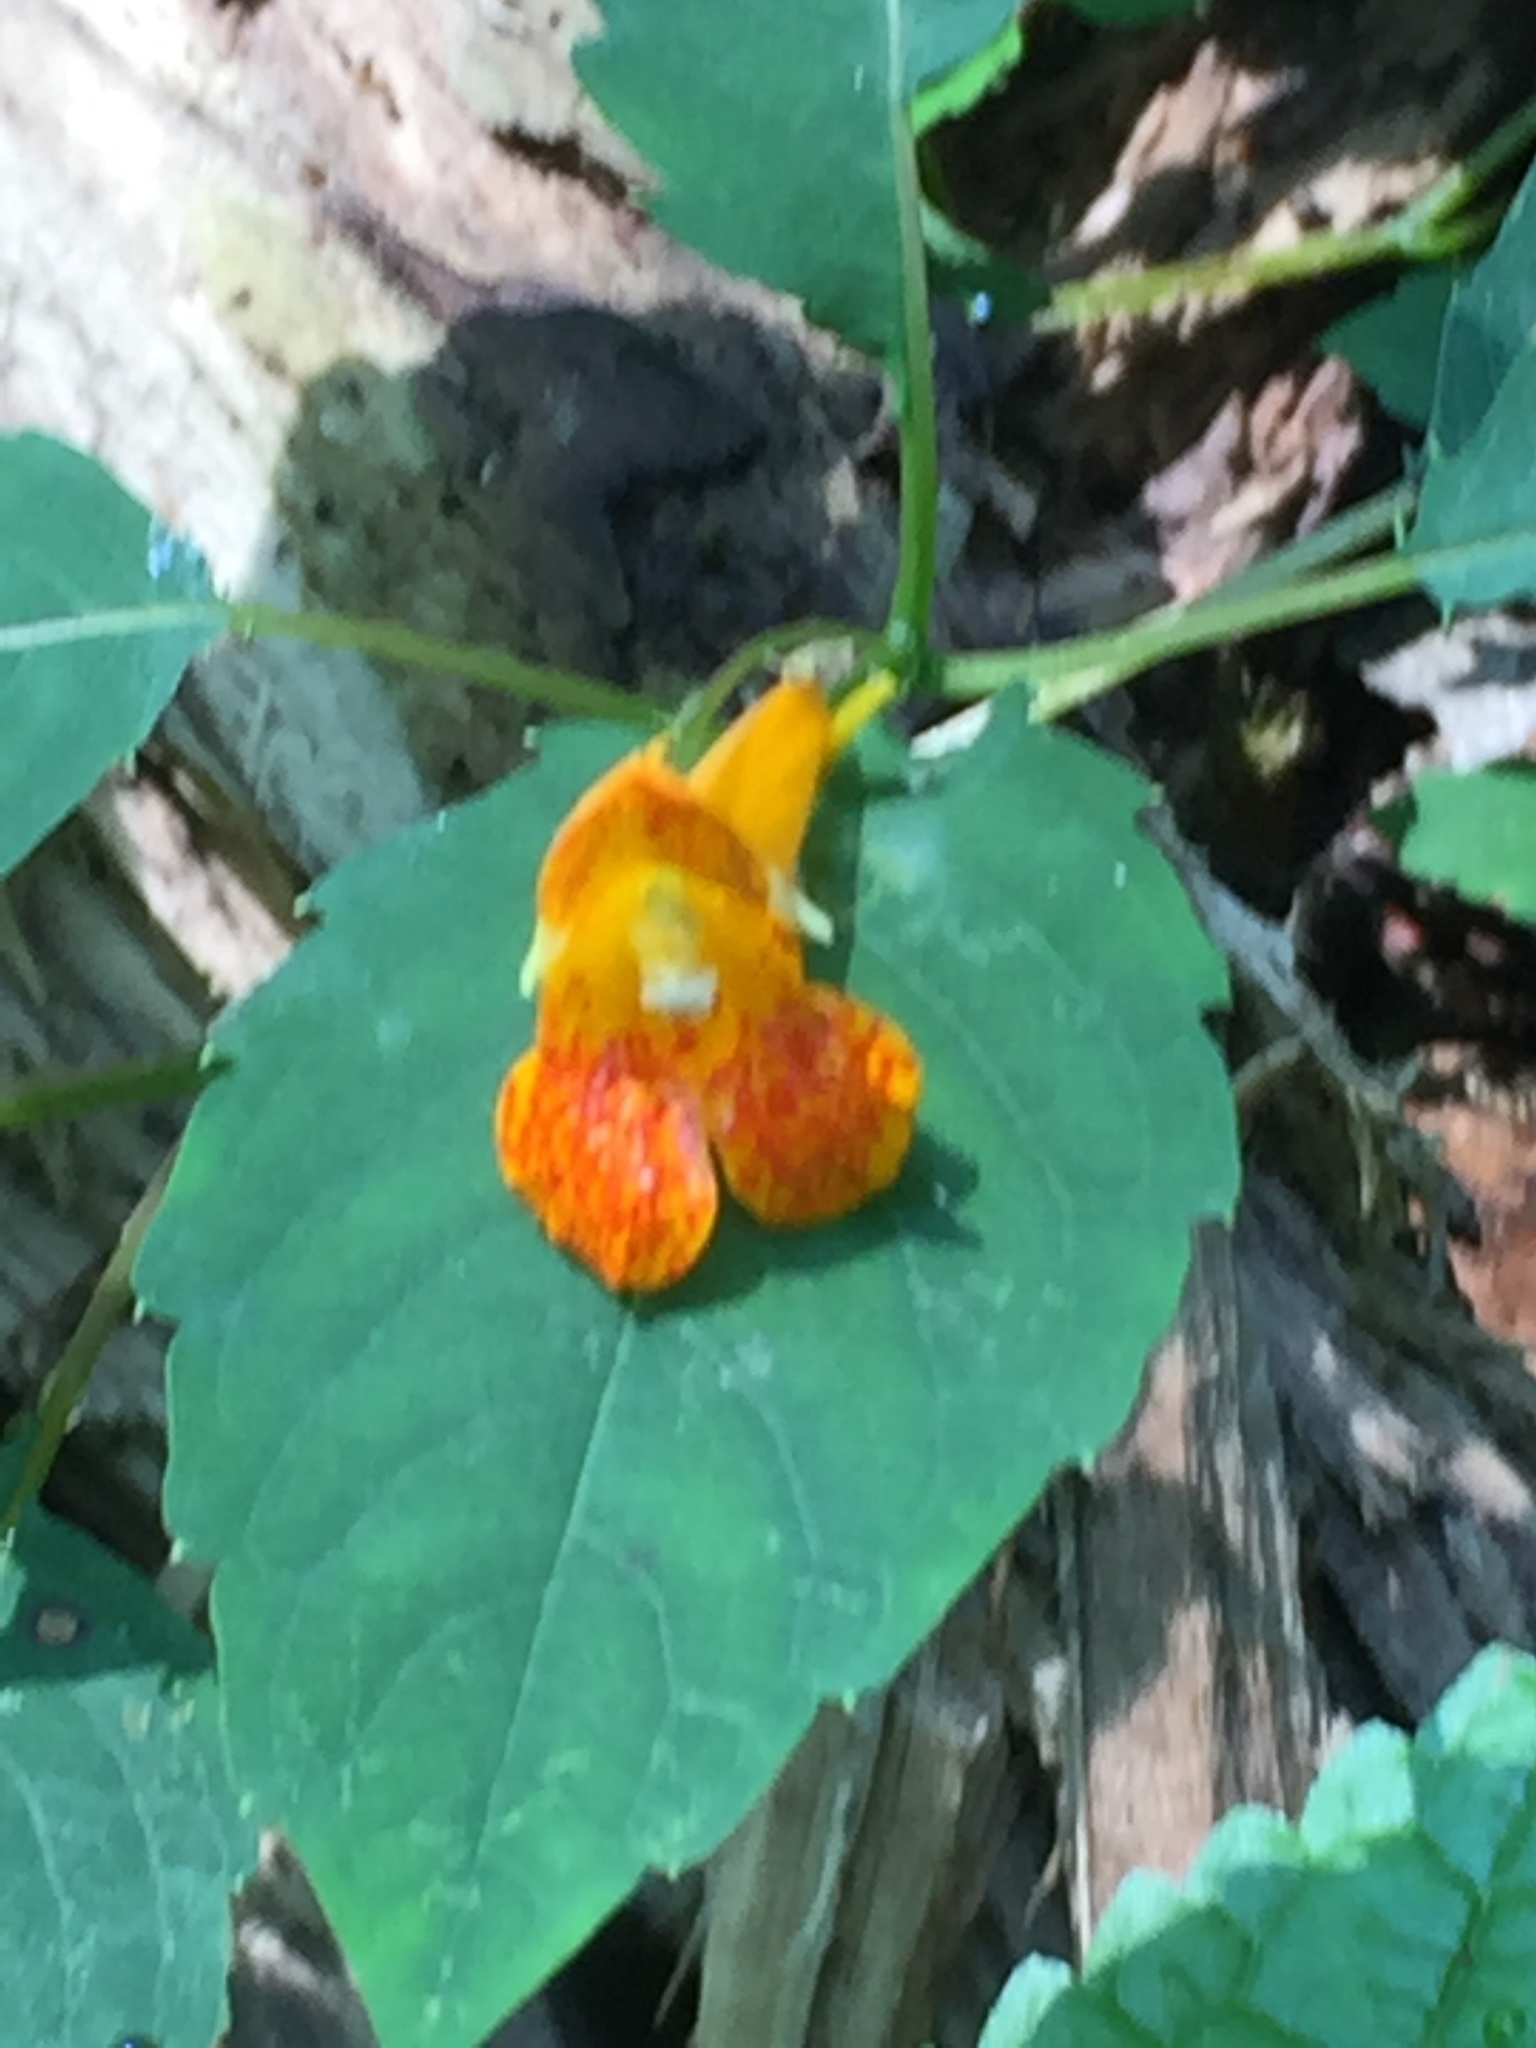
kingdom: Plantae
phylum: Tracheophyta
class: Magnoliopsida
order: Ericales
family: Balsaminaceae
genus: Impatiens
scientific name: Impatiens capensis
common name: Orange balsam
